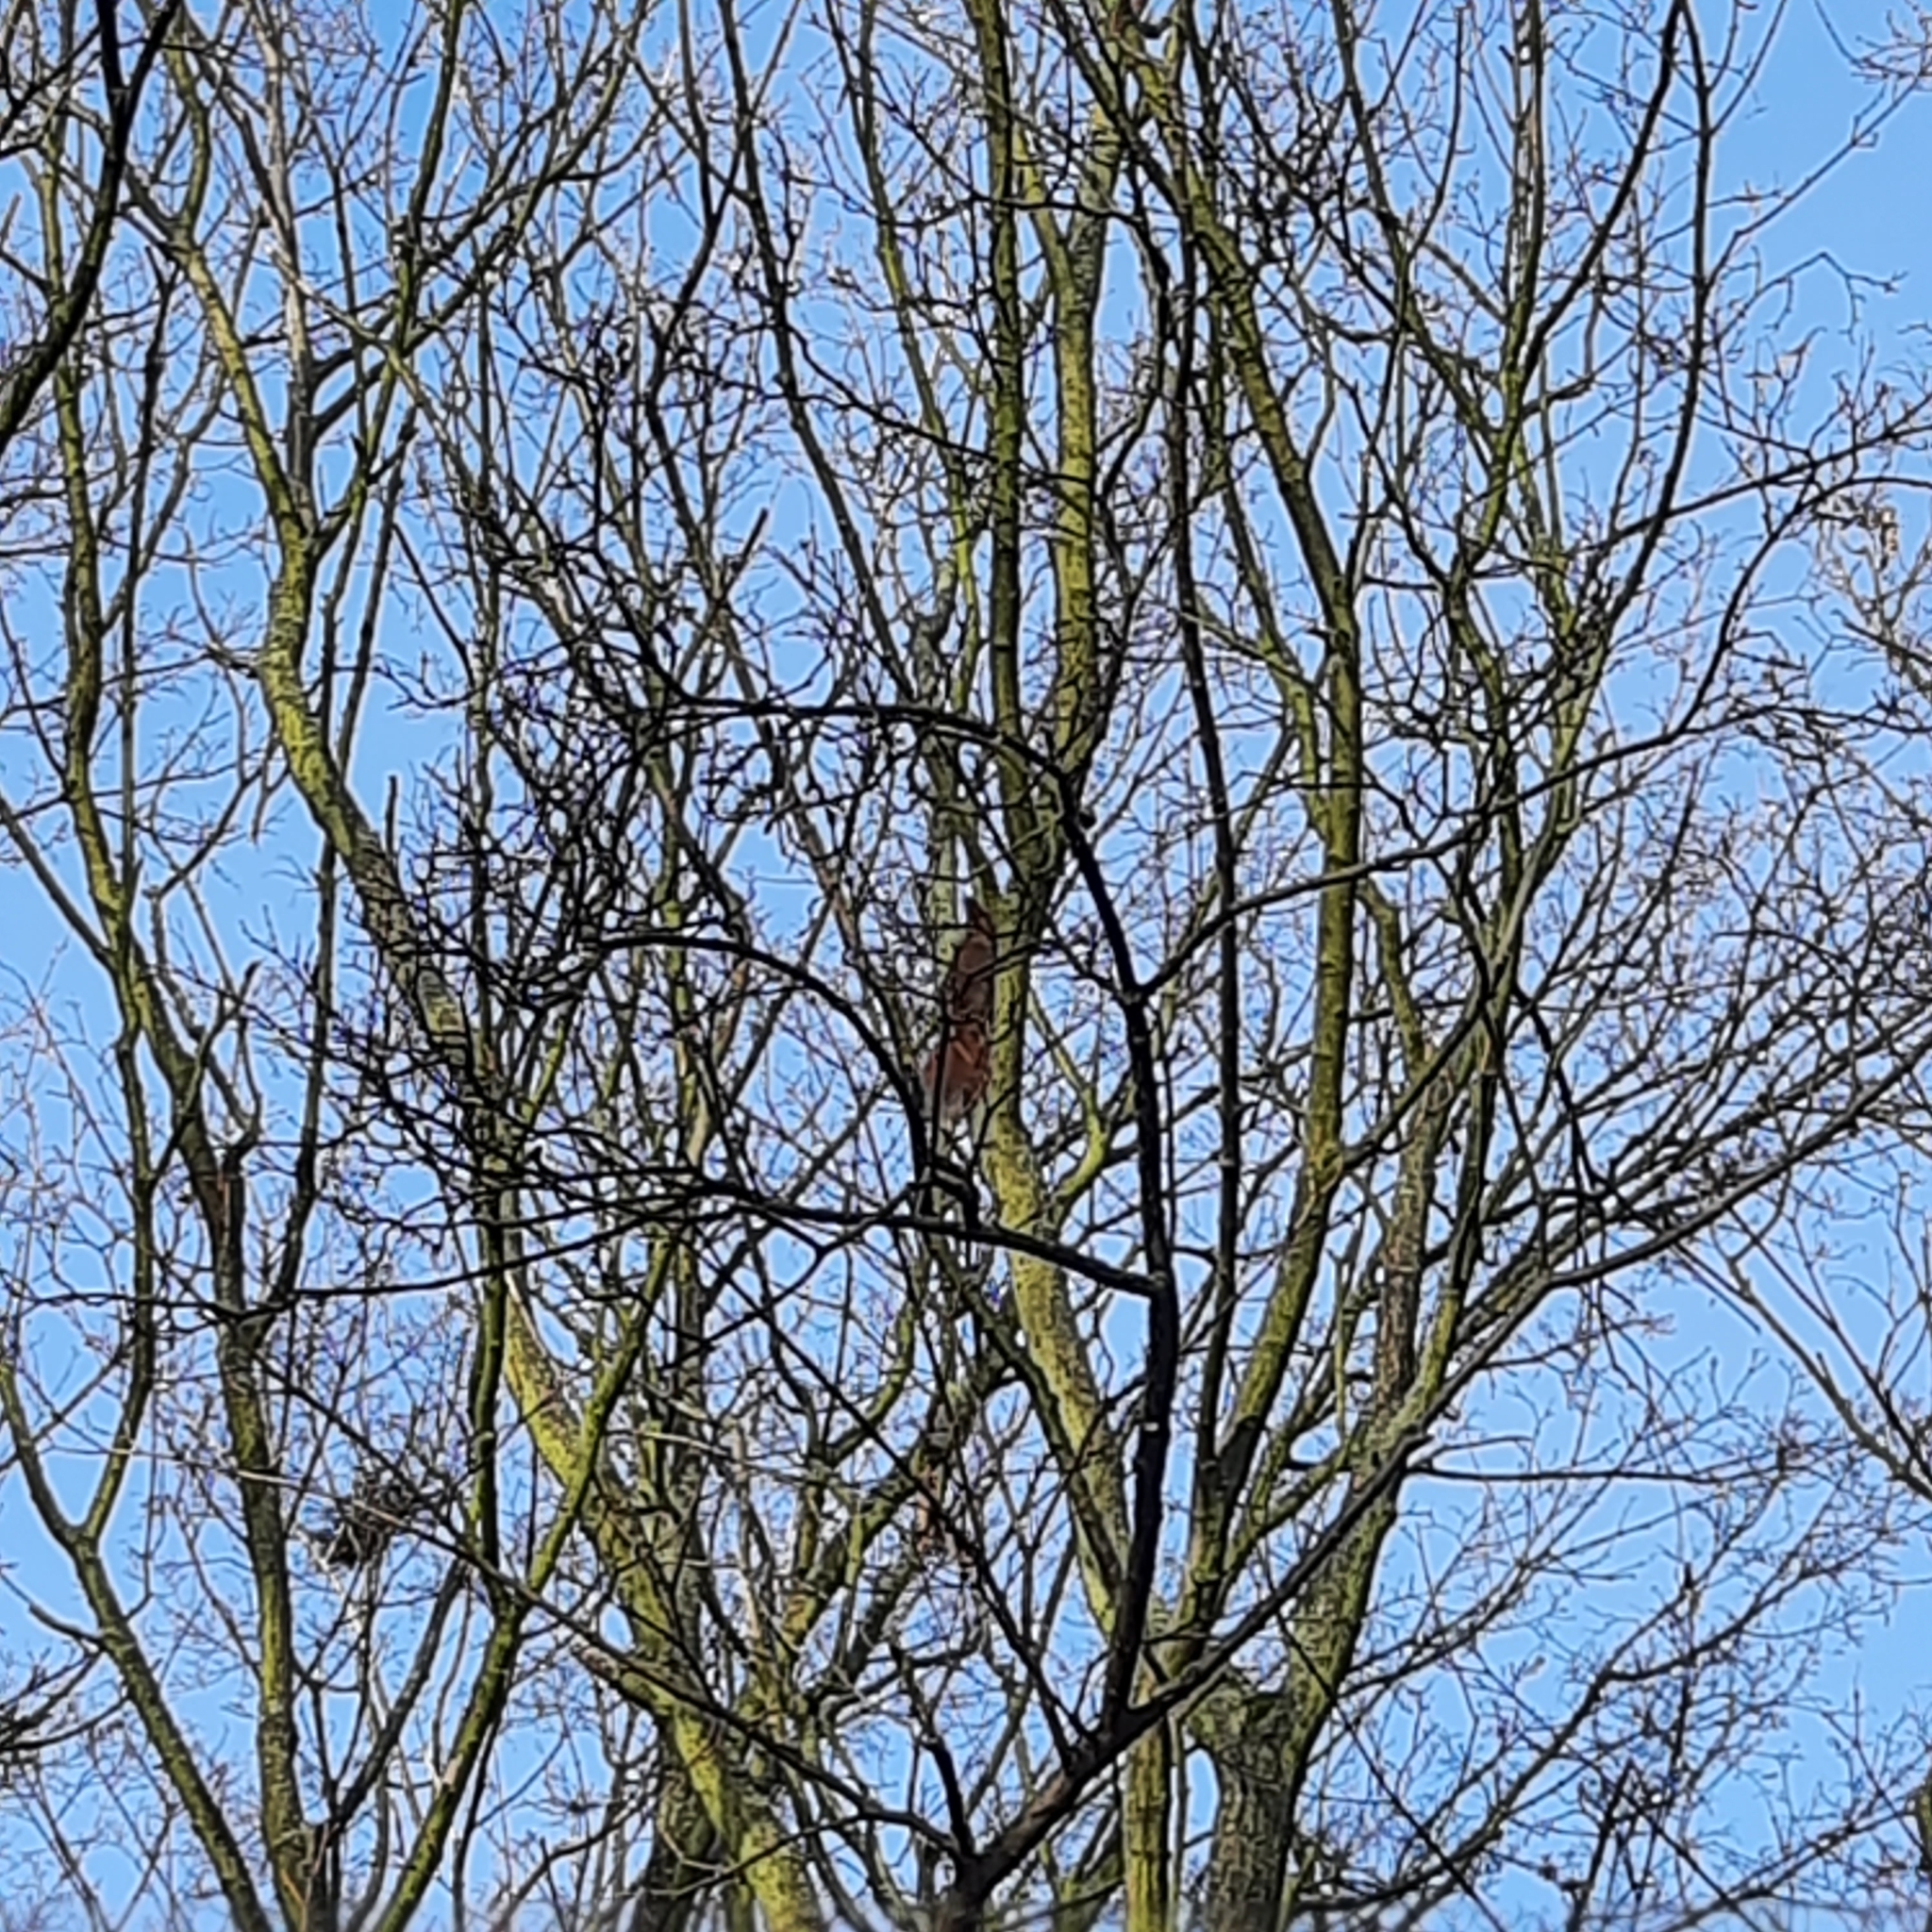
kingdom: Animalia
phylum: Chordata
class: Mammalia
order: Rodentia
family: Sciuridae
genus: Sciurus
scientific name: Sciurus vulgaris
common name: Eurasian red squirrel
